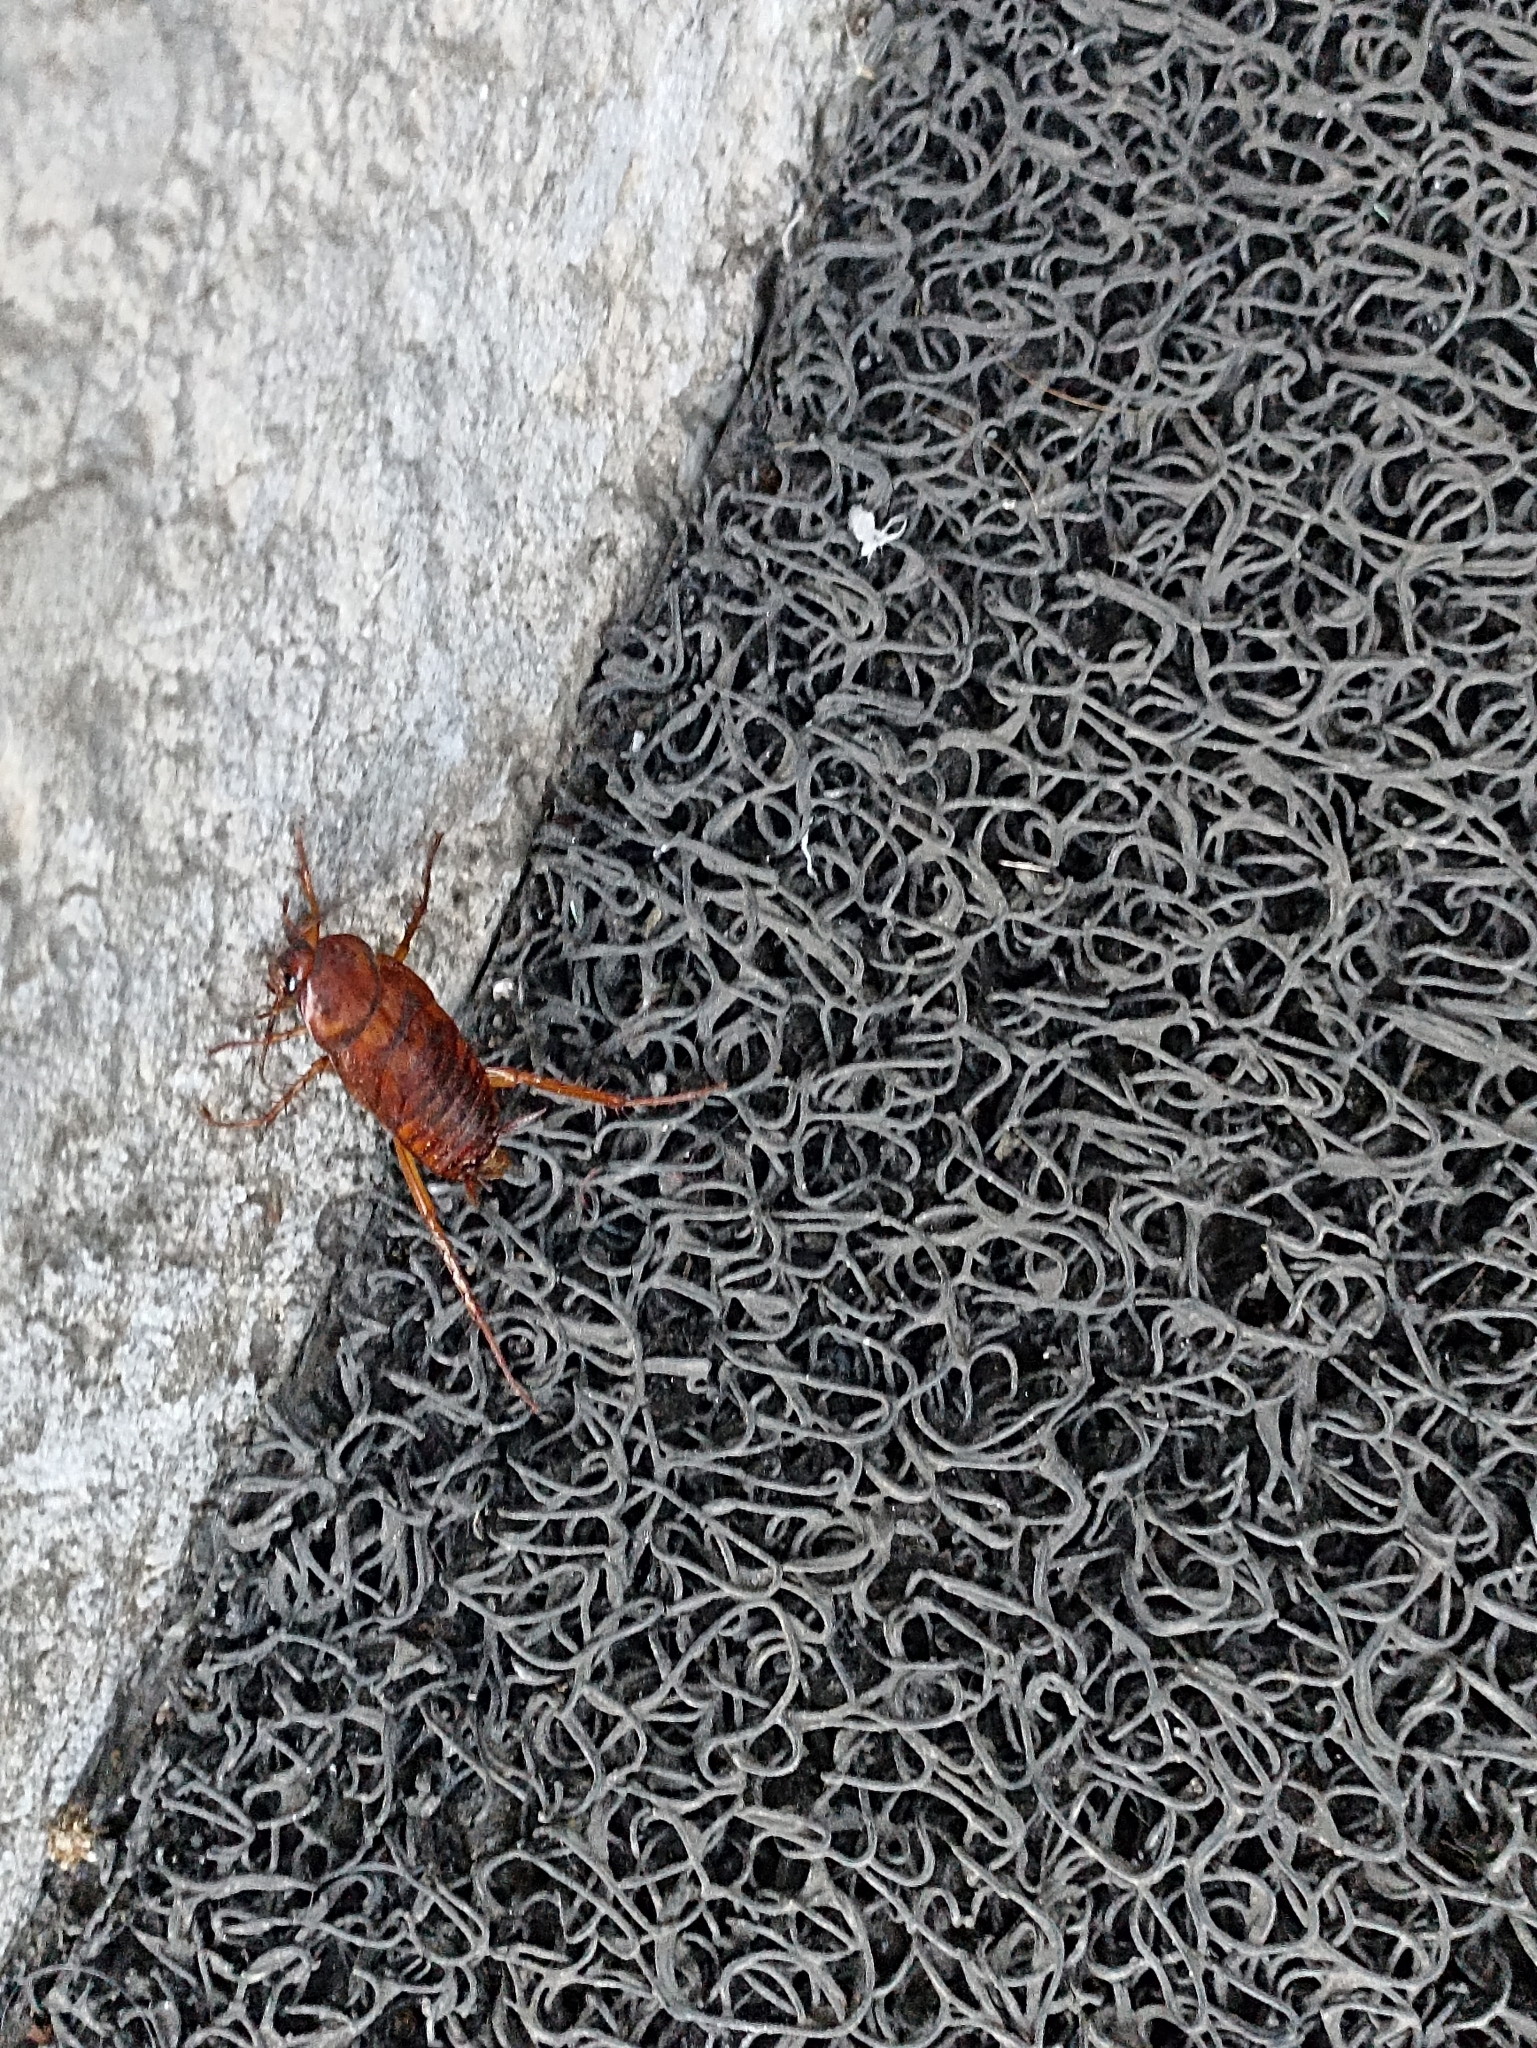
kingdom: Animalia
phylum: Arthropoda
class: Insecta
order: Blattodea
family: Blattidae
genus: Periplaneta
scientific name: Periplaneta americana
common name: American cockroach
